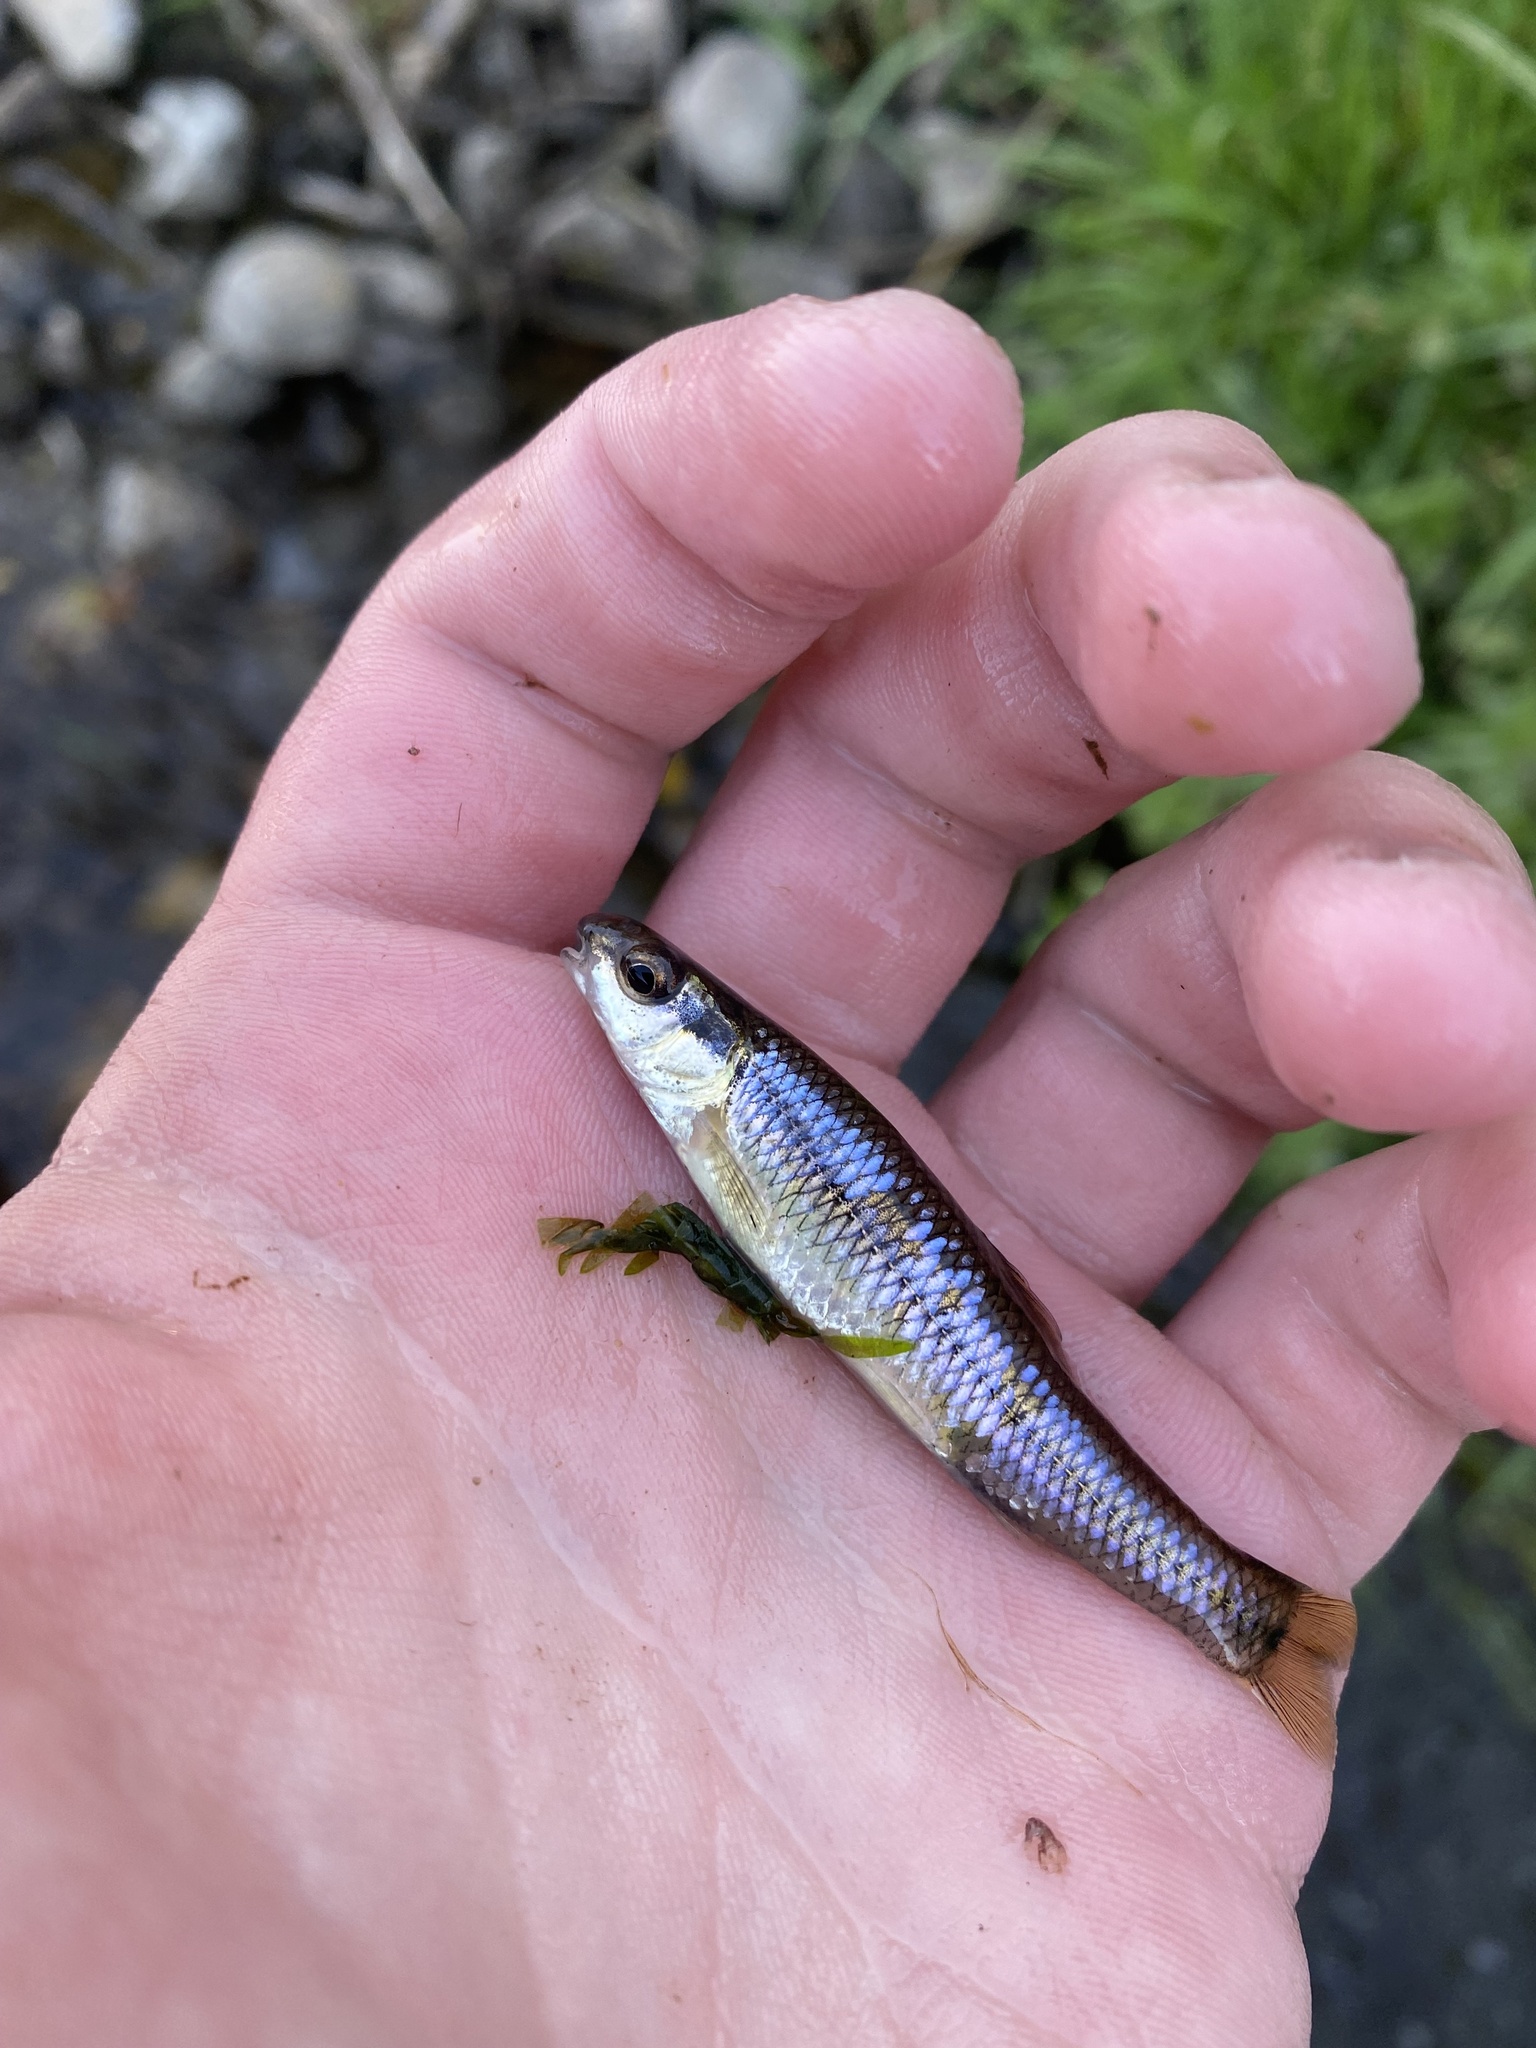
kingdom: Animalia
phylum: Chordata
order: Cypriniformes
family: Cyprinidae
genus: Pimephales
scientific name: Pimephales notatus
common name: Bluntnose minnow
